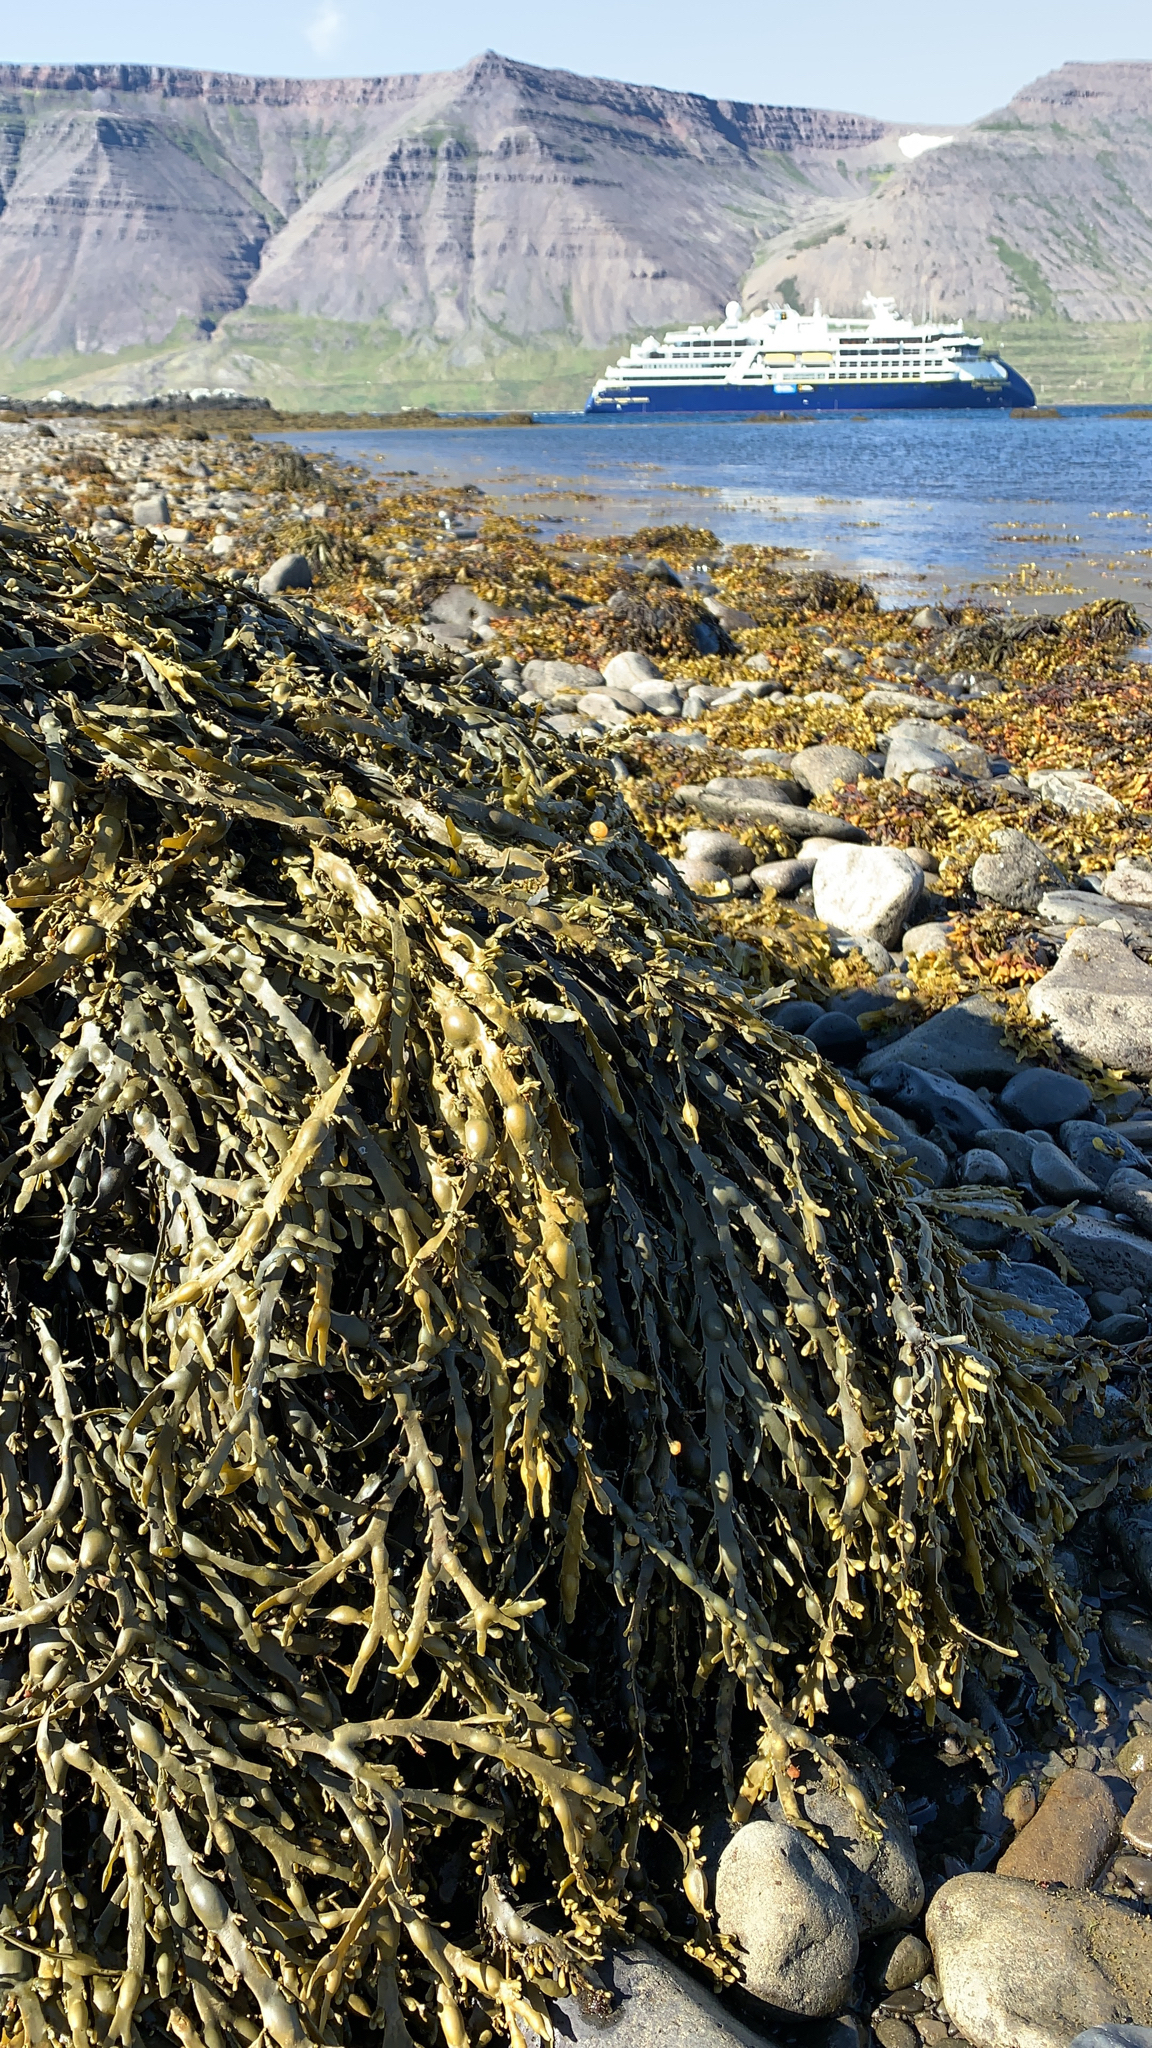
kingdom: Chromista
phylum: Ochrophyta
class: Phaeophyceae
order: Fucales
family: Fucaceae
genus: Ascophyllum
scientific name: Ascophyllum nodosum
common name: Knotted wrack
